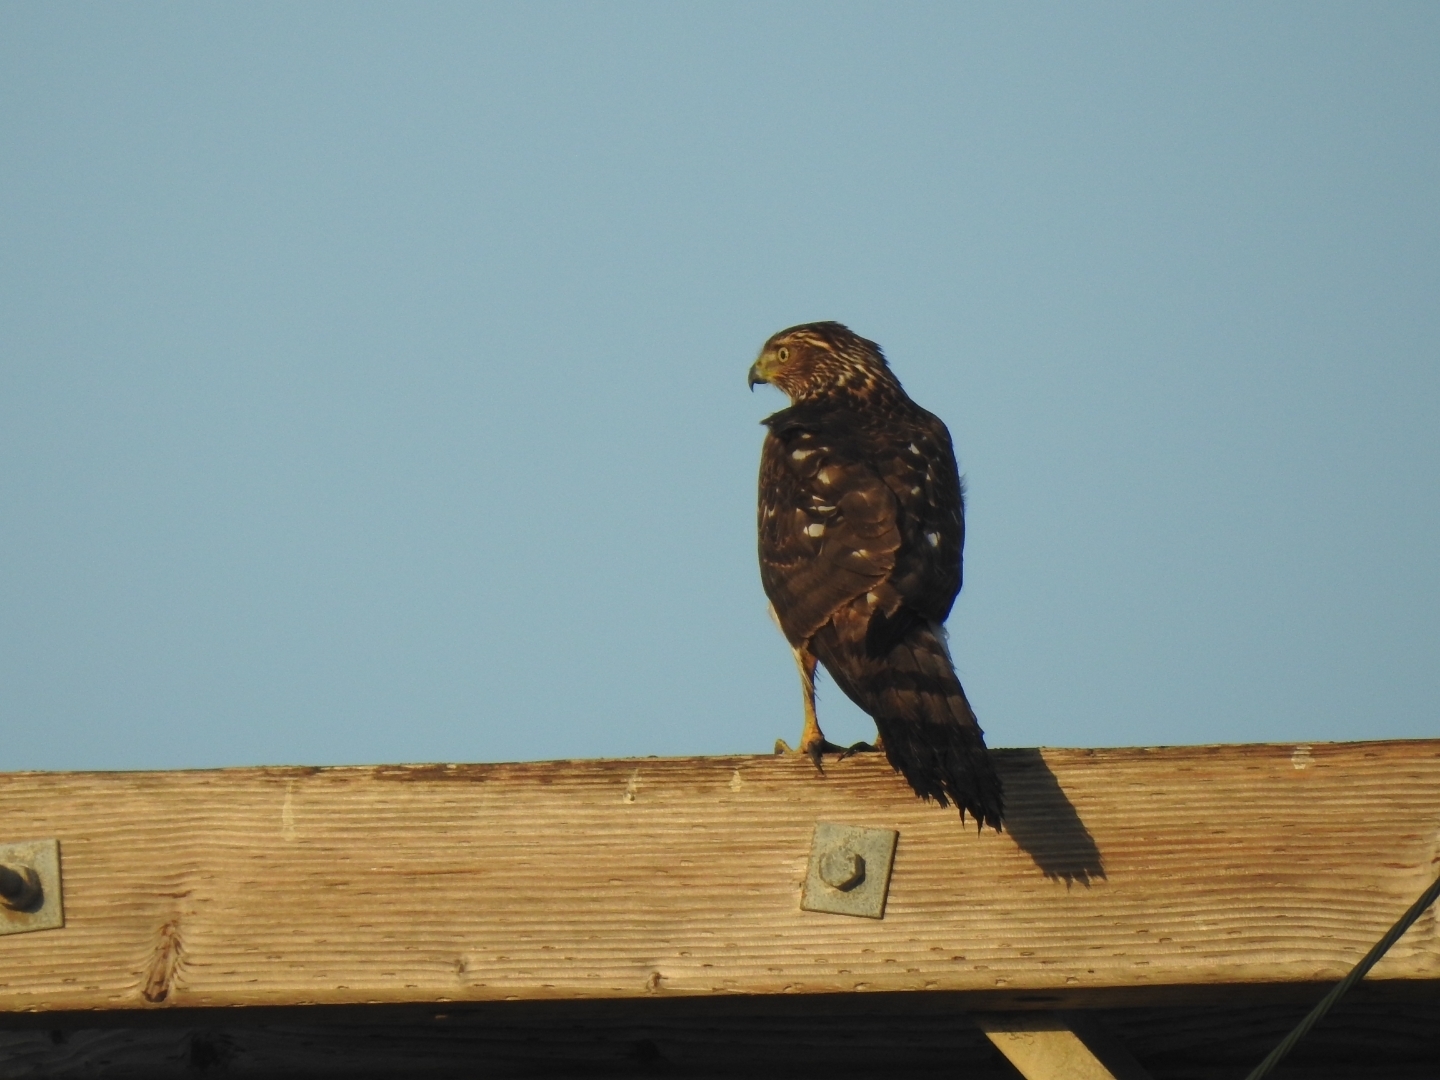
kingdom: Animalia
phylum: Chordata
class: Aves
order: Accipitriformes
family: Accipitridae
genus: Accipiter
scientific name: Accipiter cooperii
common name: Cooper's hawk
